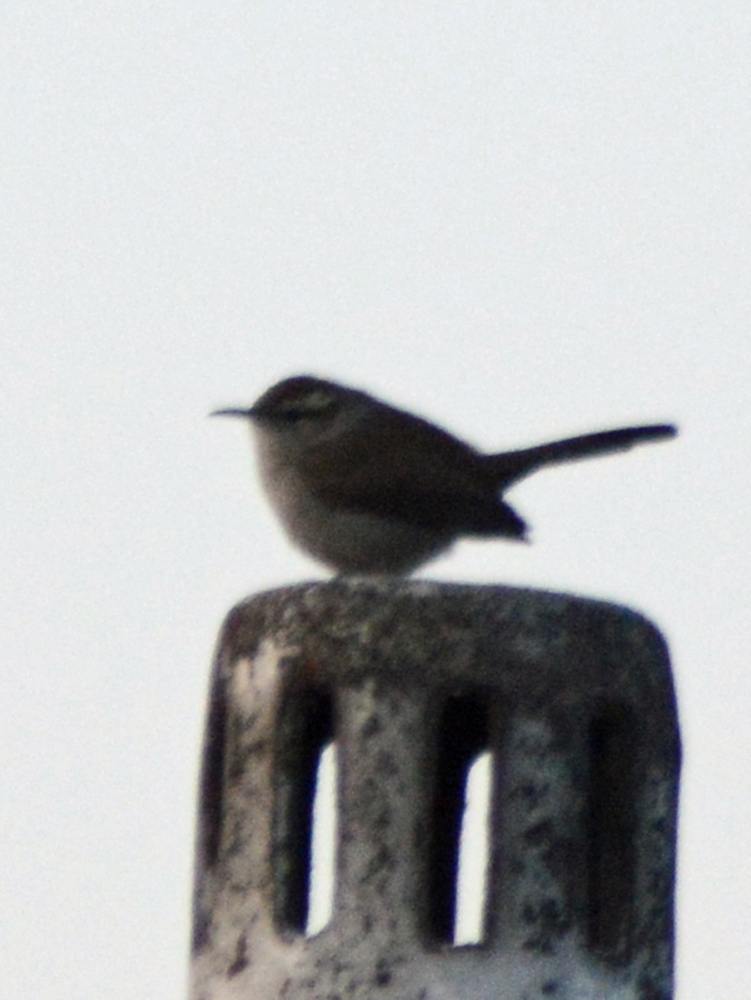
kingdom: Animalia
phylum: Chordata
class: Aves
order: Passeriformes
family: Troglodytidae
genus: Thryomanes
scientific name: Thryomanes bewickii
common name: Bewick's wren
